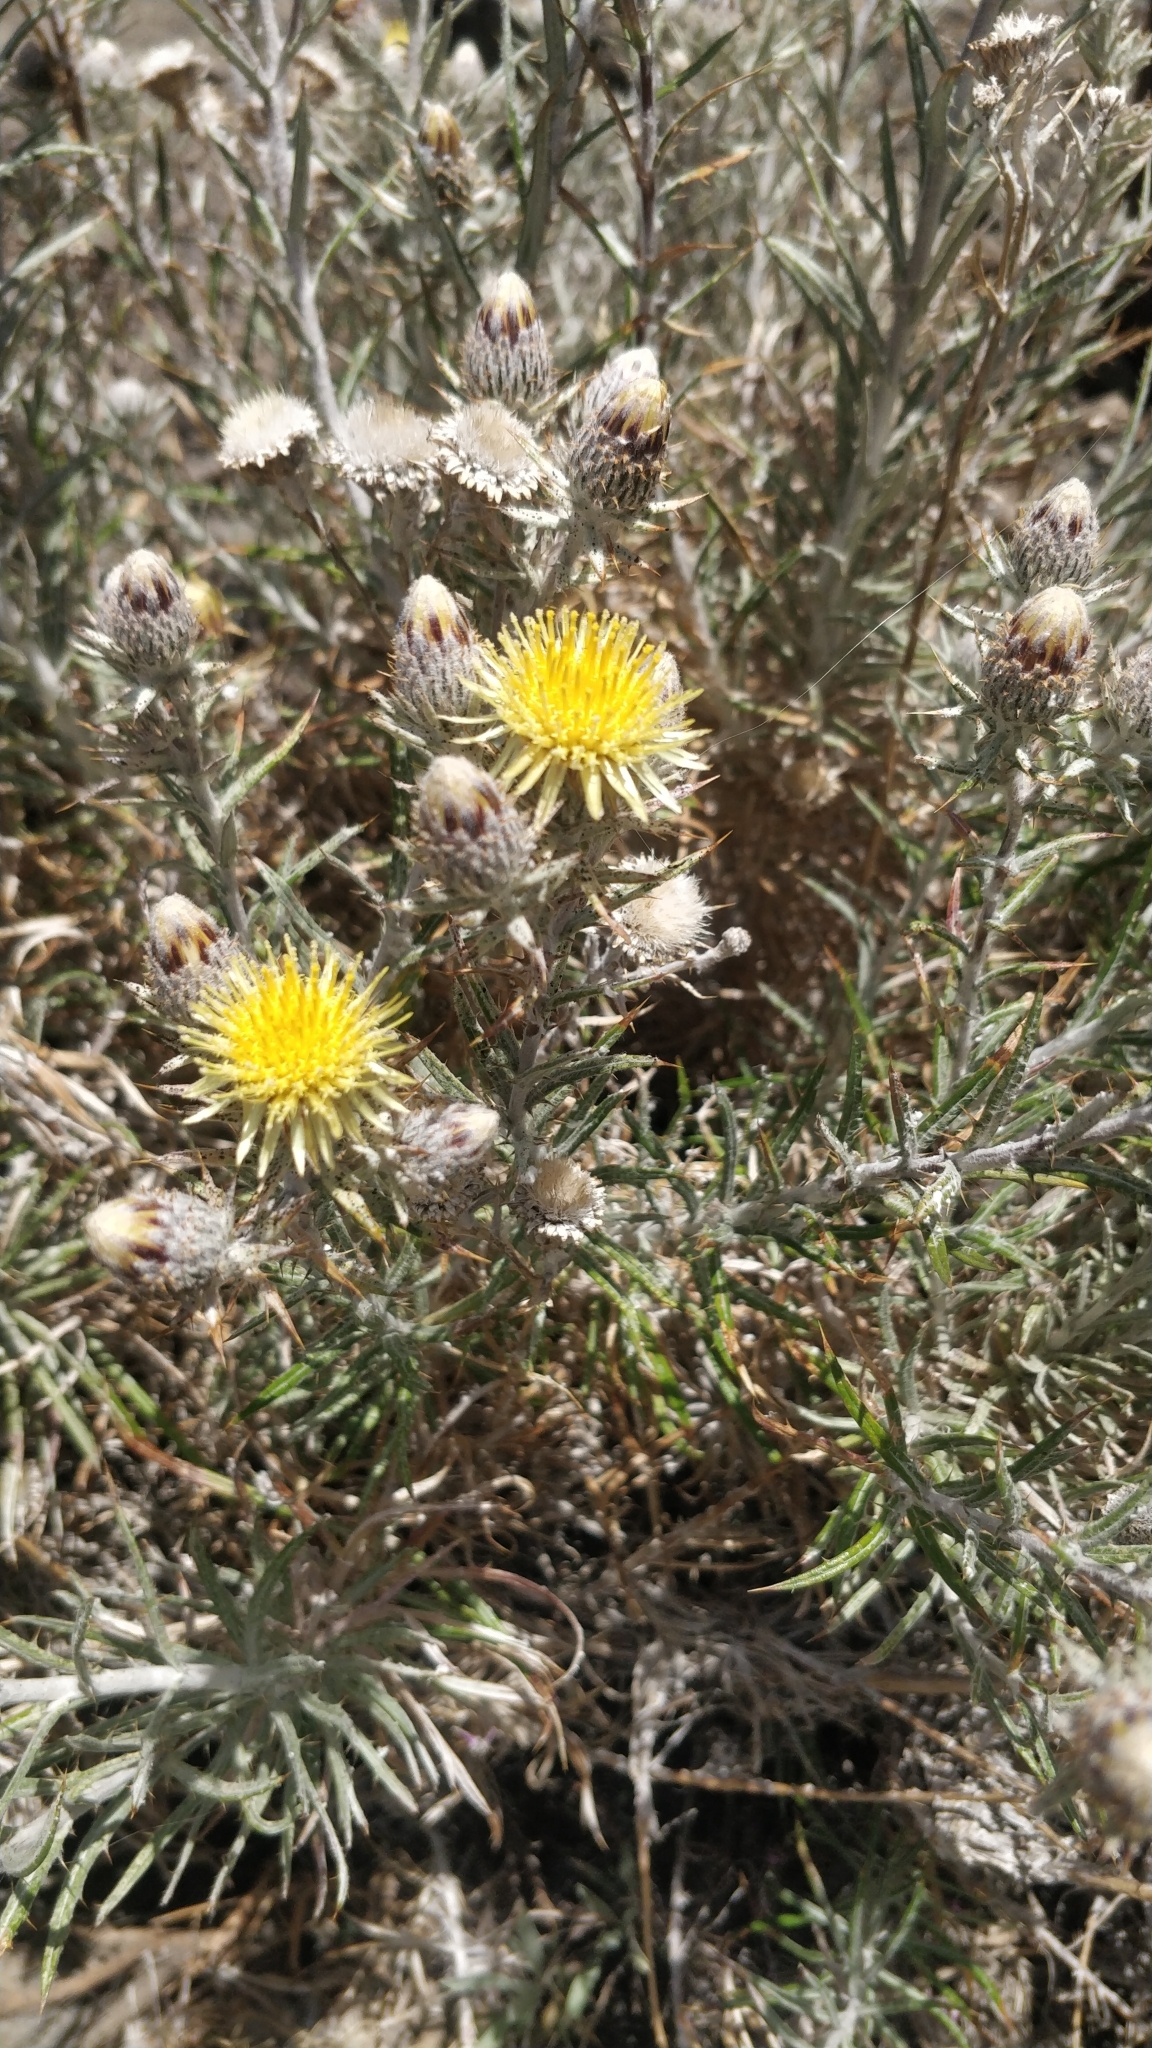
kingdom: Plantae
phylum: Tracheophyta
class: Magnoliopsida
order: Asterales
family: Asteraceae
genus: Carlina
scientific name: Carlina xeranthemoides
